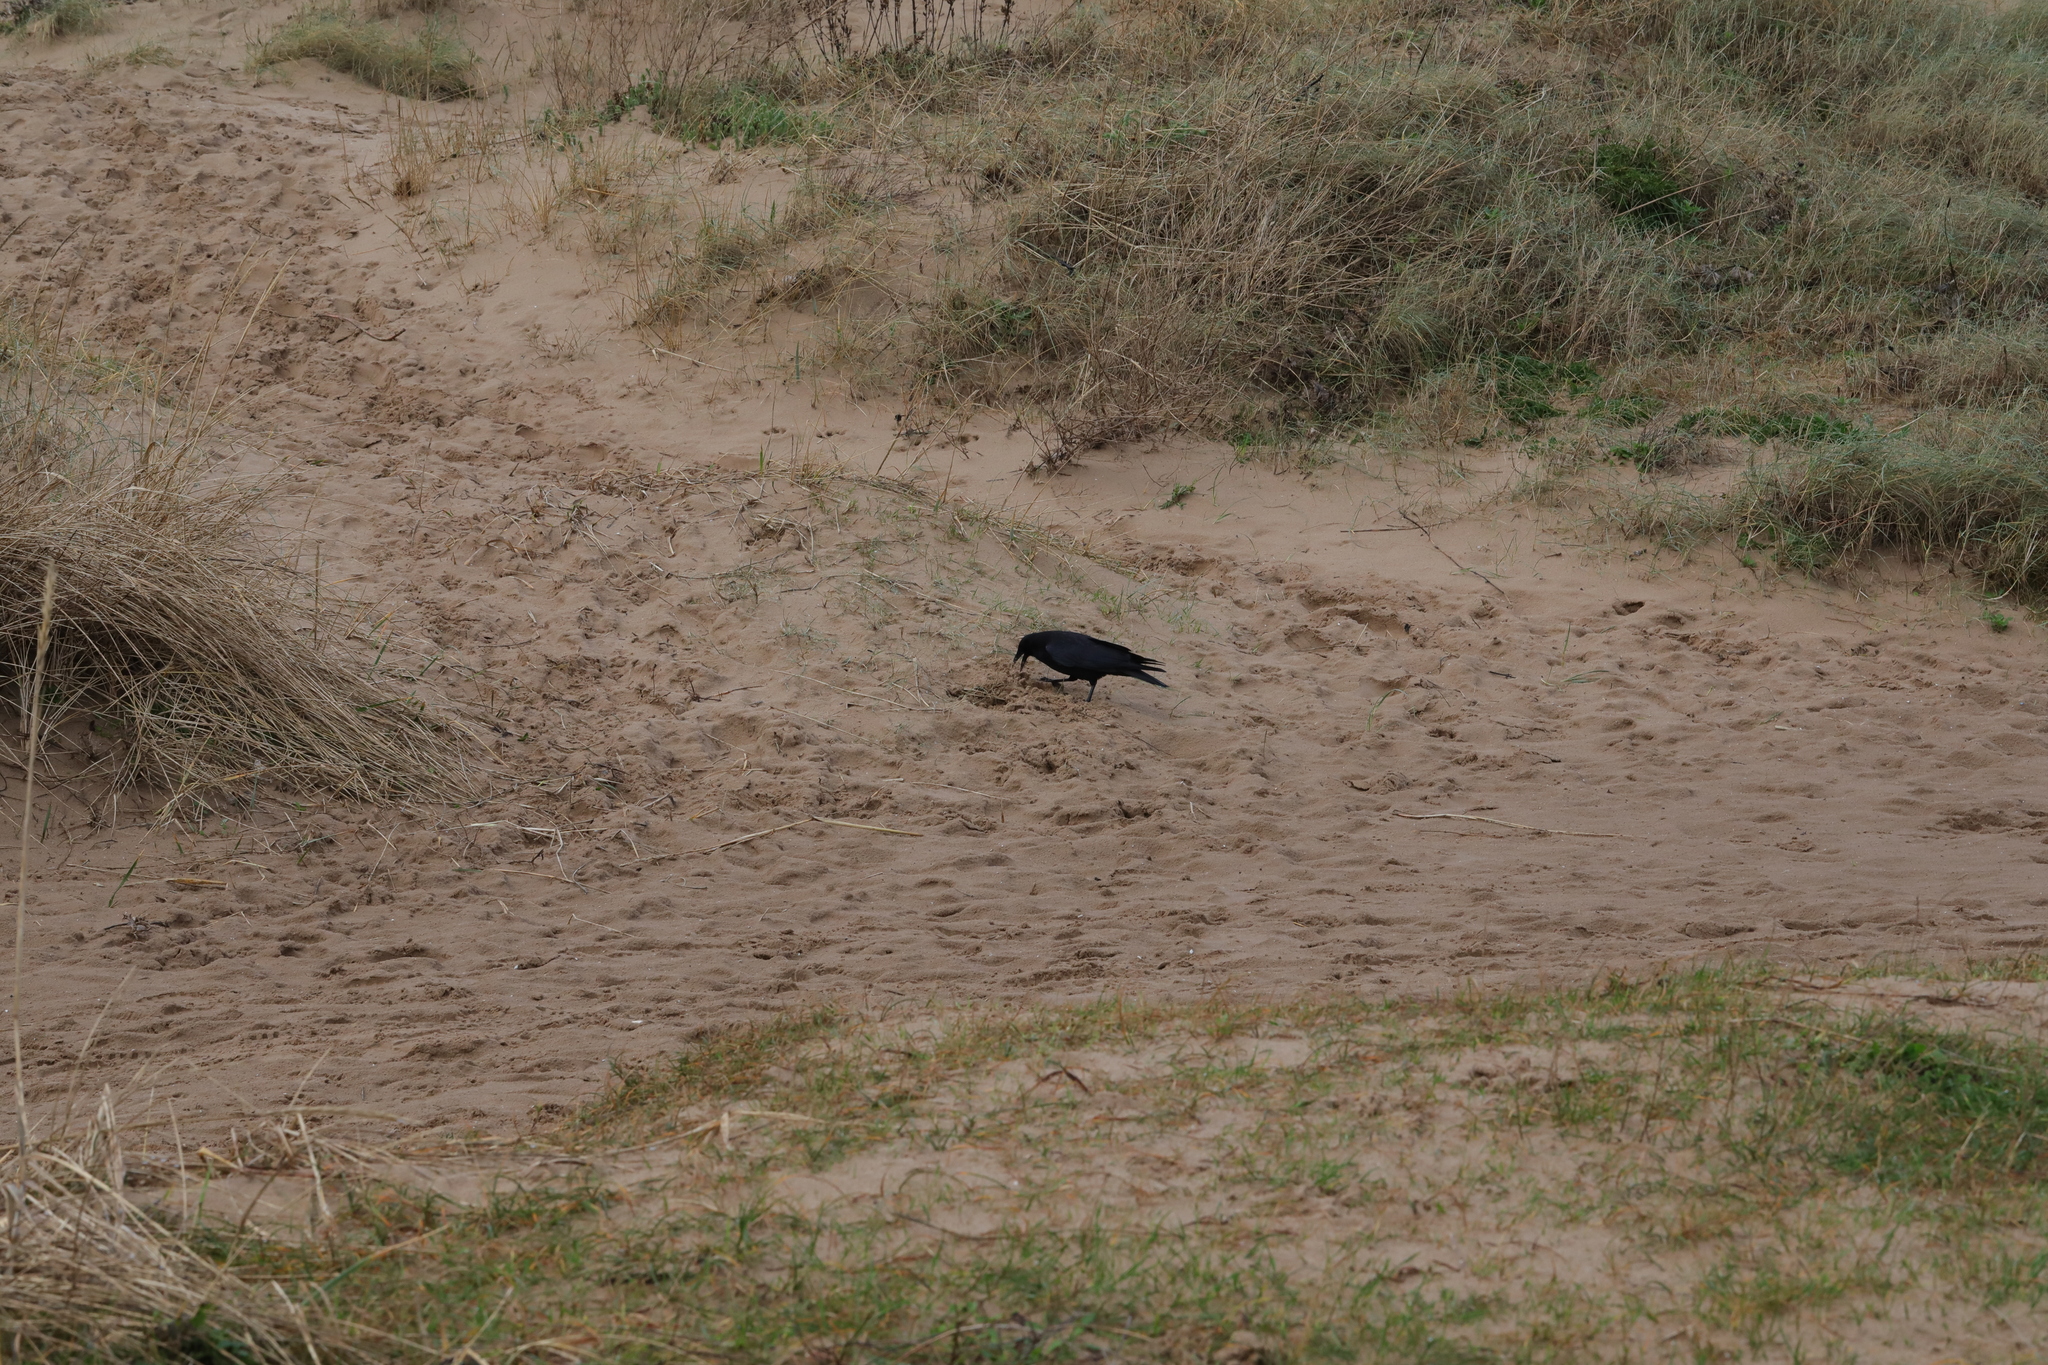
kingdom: Animalia
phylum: Chordata
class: Aves
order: Passeriformes
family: Corvidae
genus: Corvus
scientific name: Corvus corone
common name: Carrion crow
